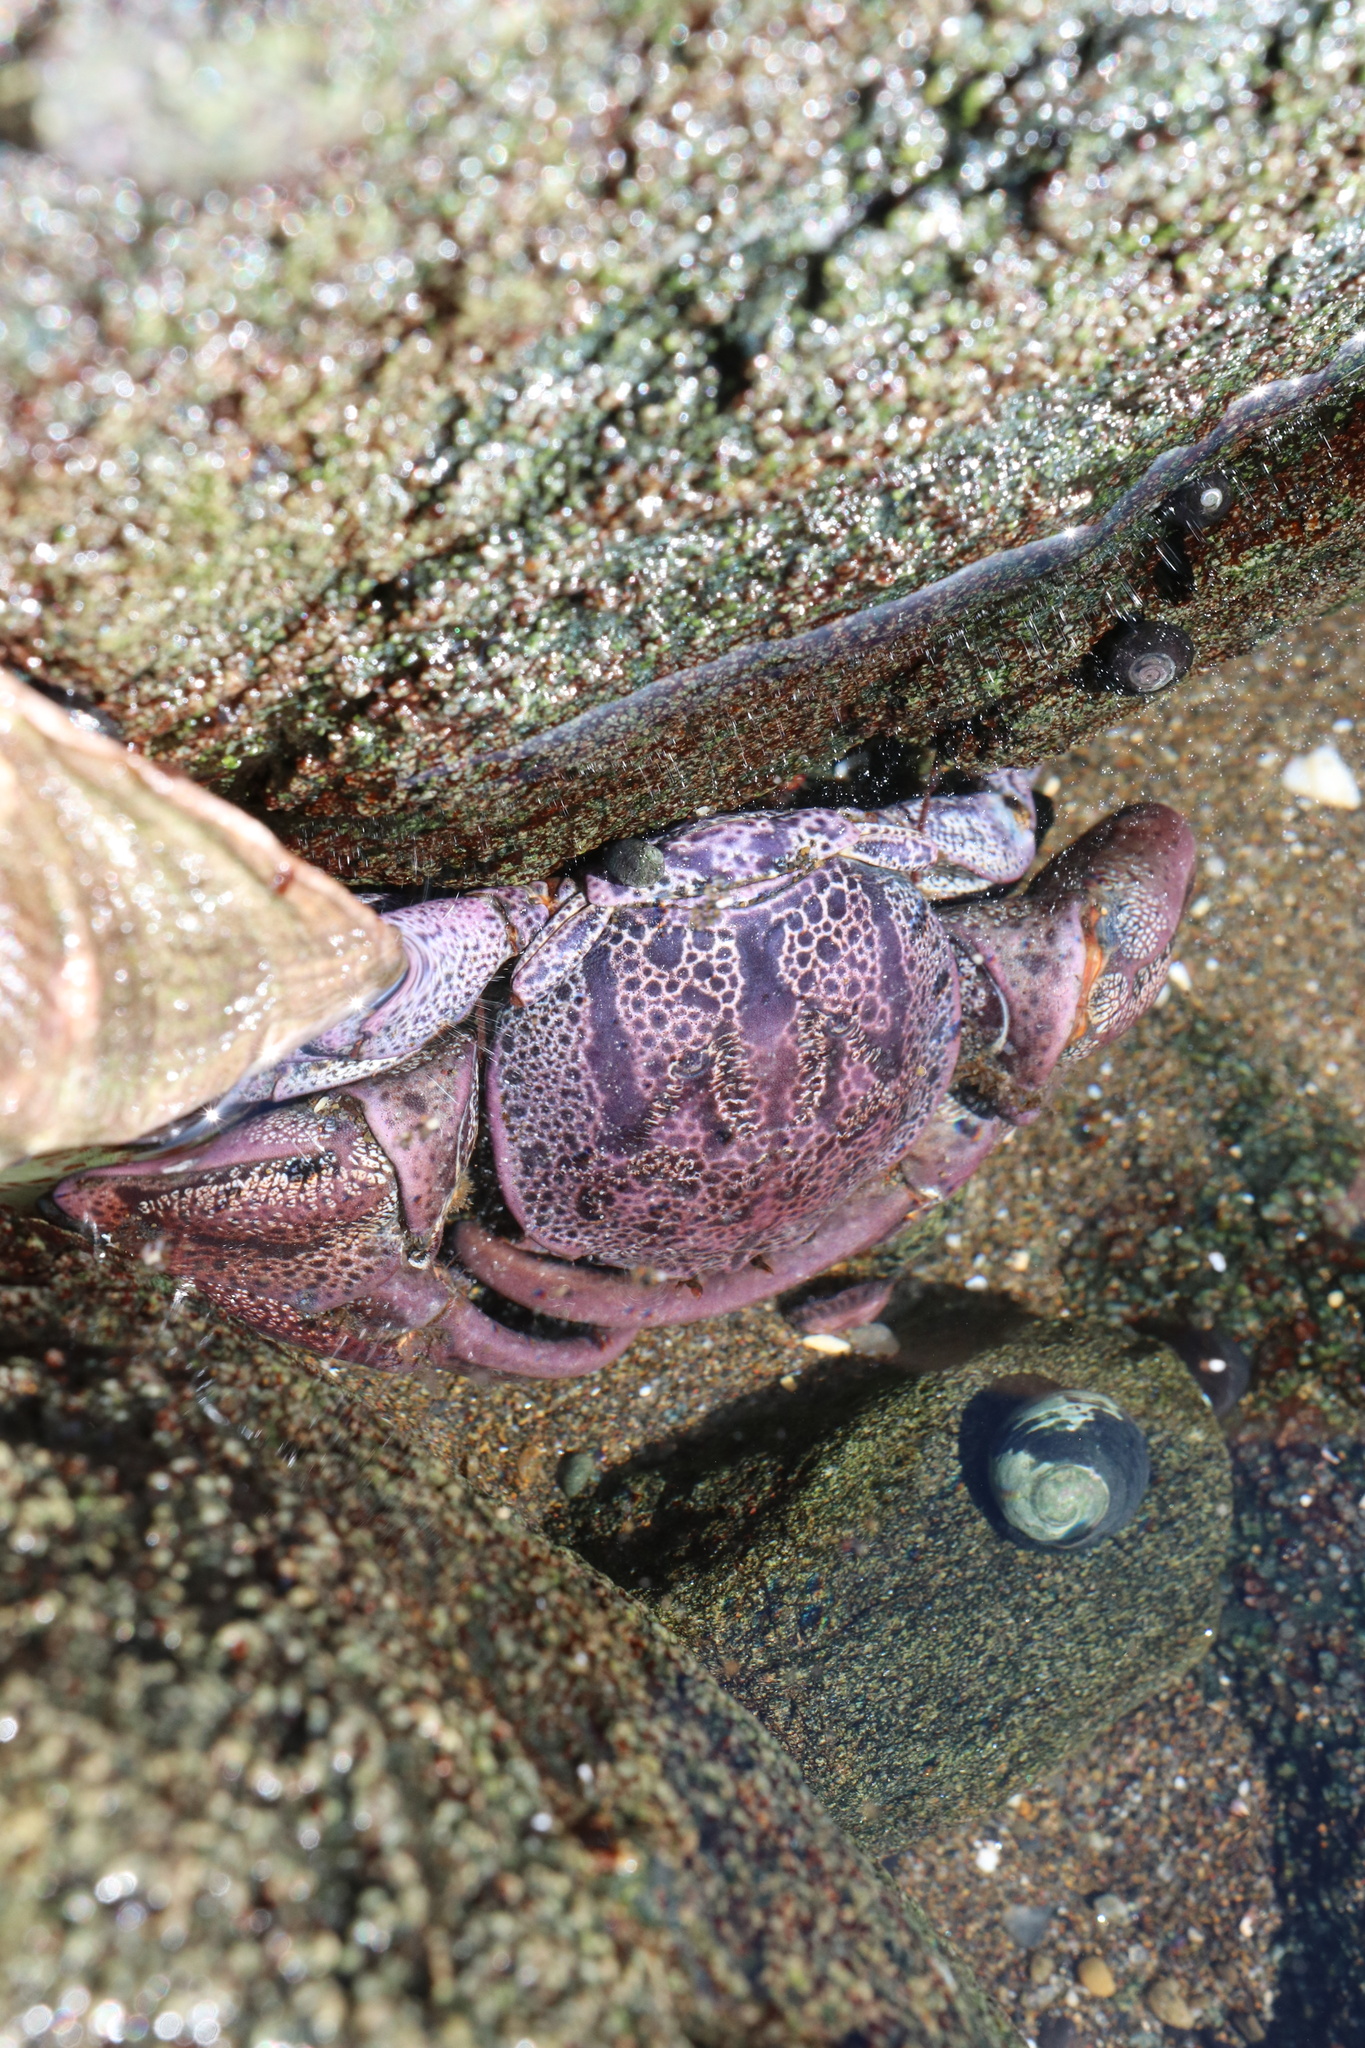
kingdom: Animalia
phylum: Arthropoda
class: Malacostraca
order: Decapoda
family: Porcellanidae
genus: Petrolisthes
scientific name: Petrolisthes punctatus
